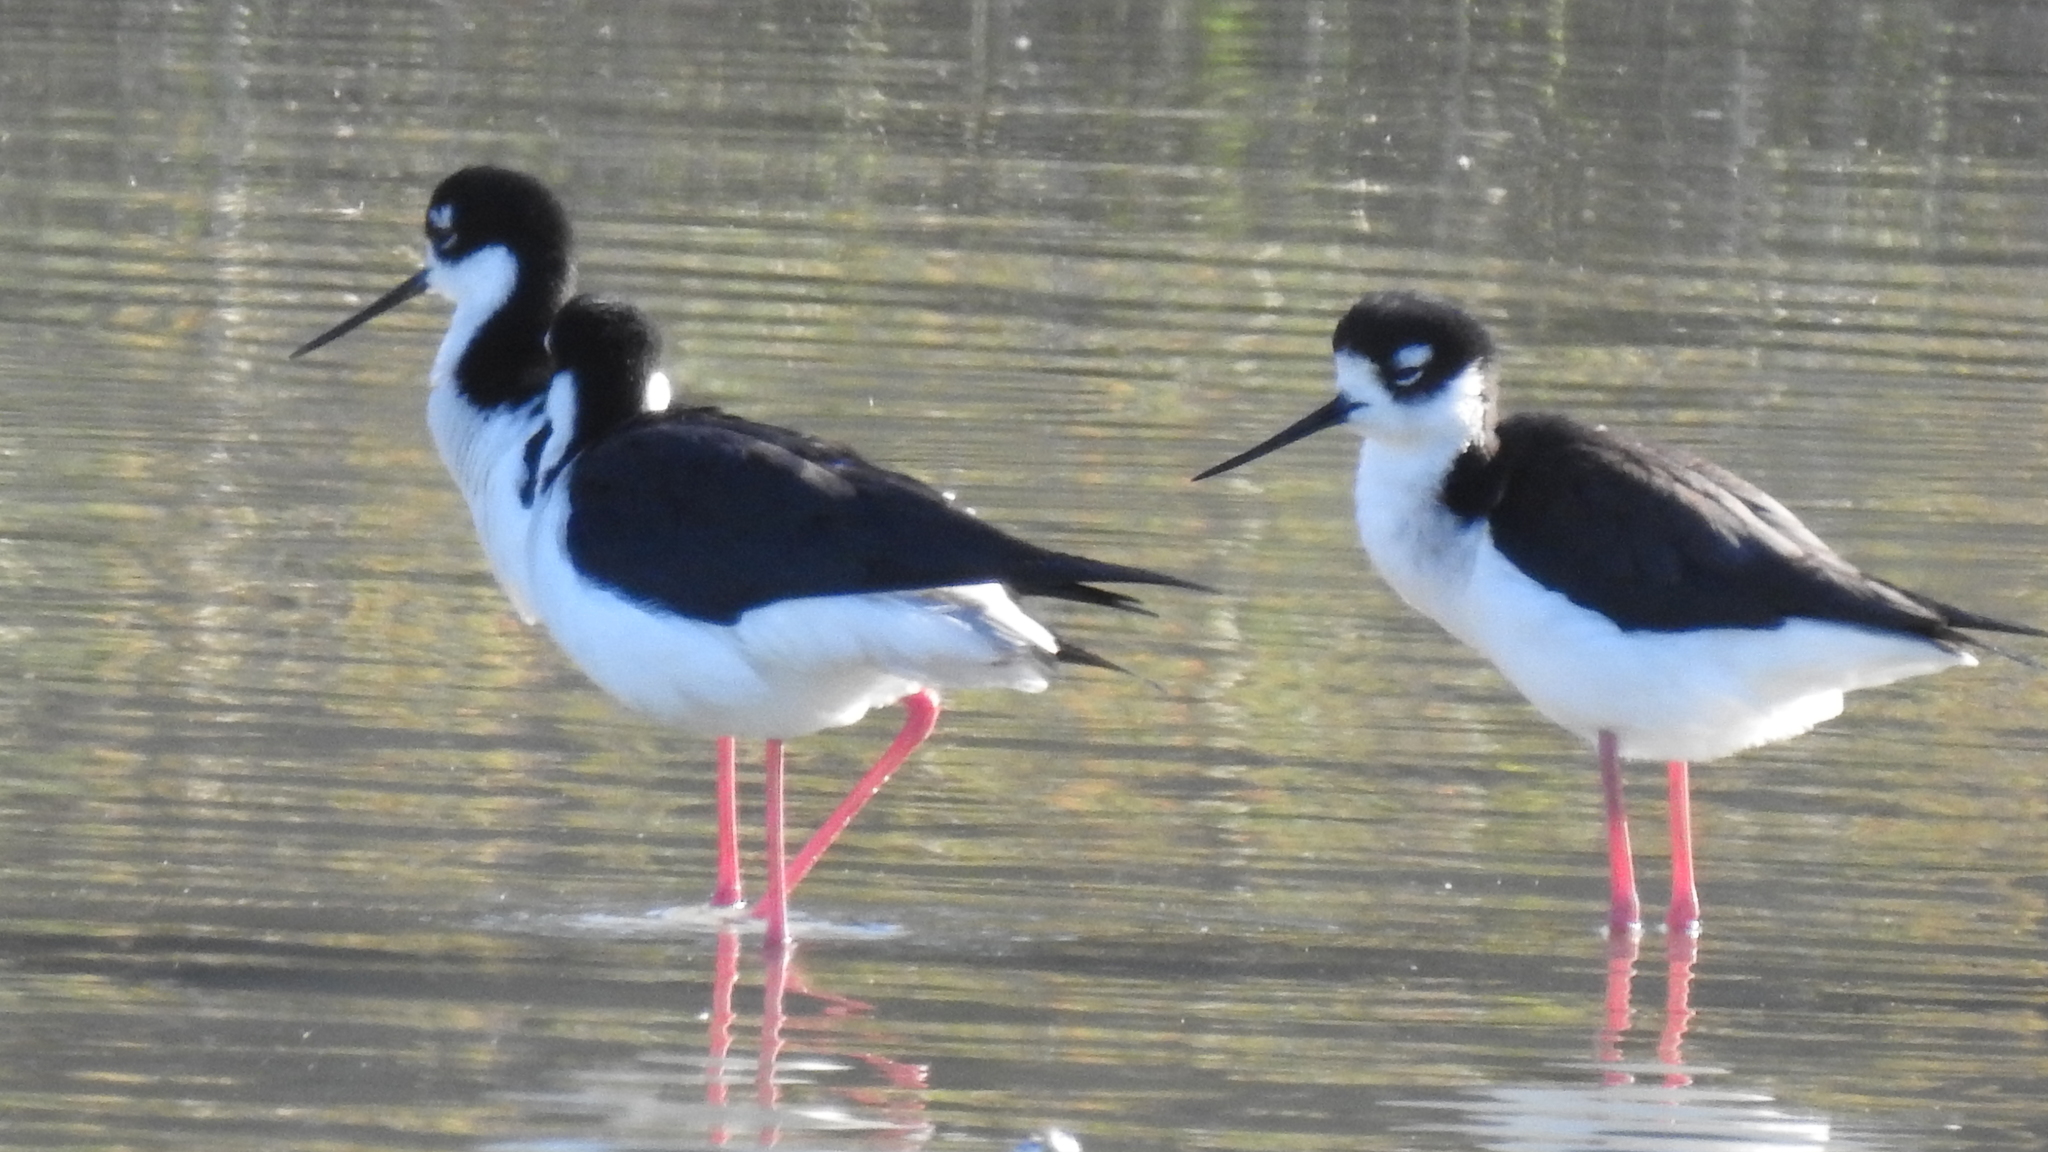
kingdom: Animalia
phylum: Chordata
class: Aves
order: Charadriiformes
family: Recurvirostridae
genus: Himantopus
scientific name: Himantopus mexicanus
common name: Black-necked stilt
